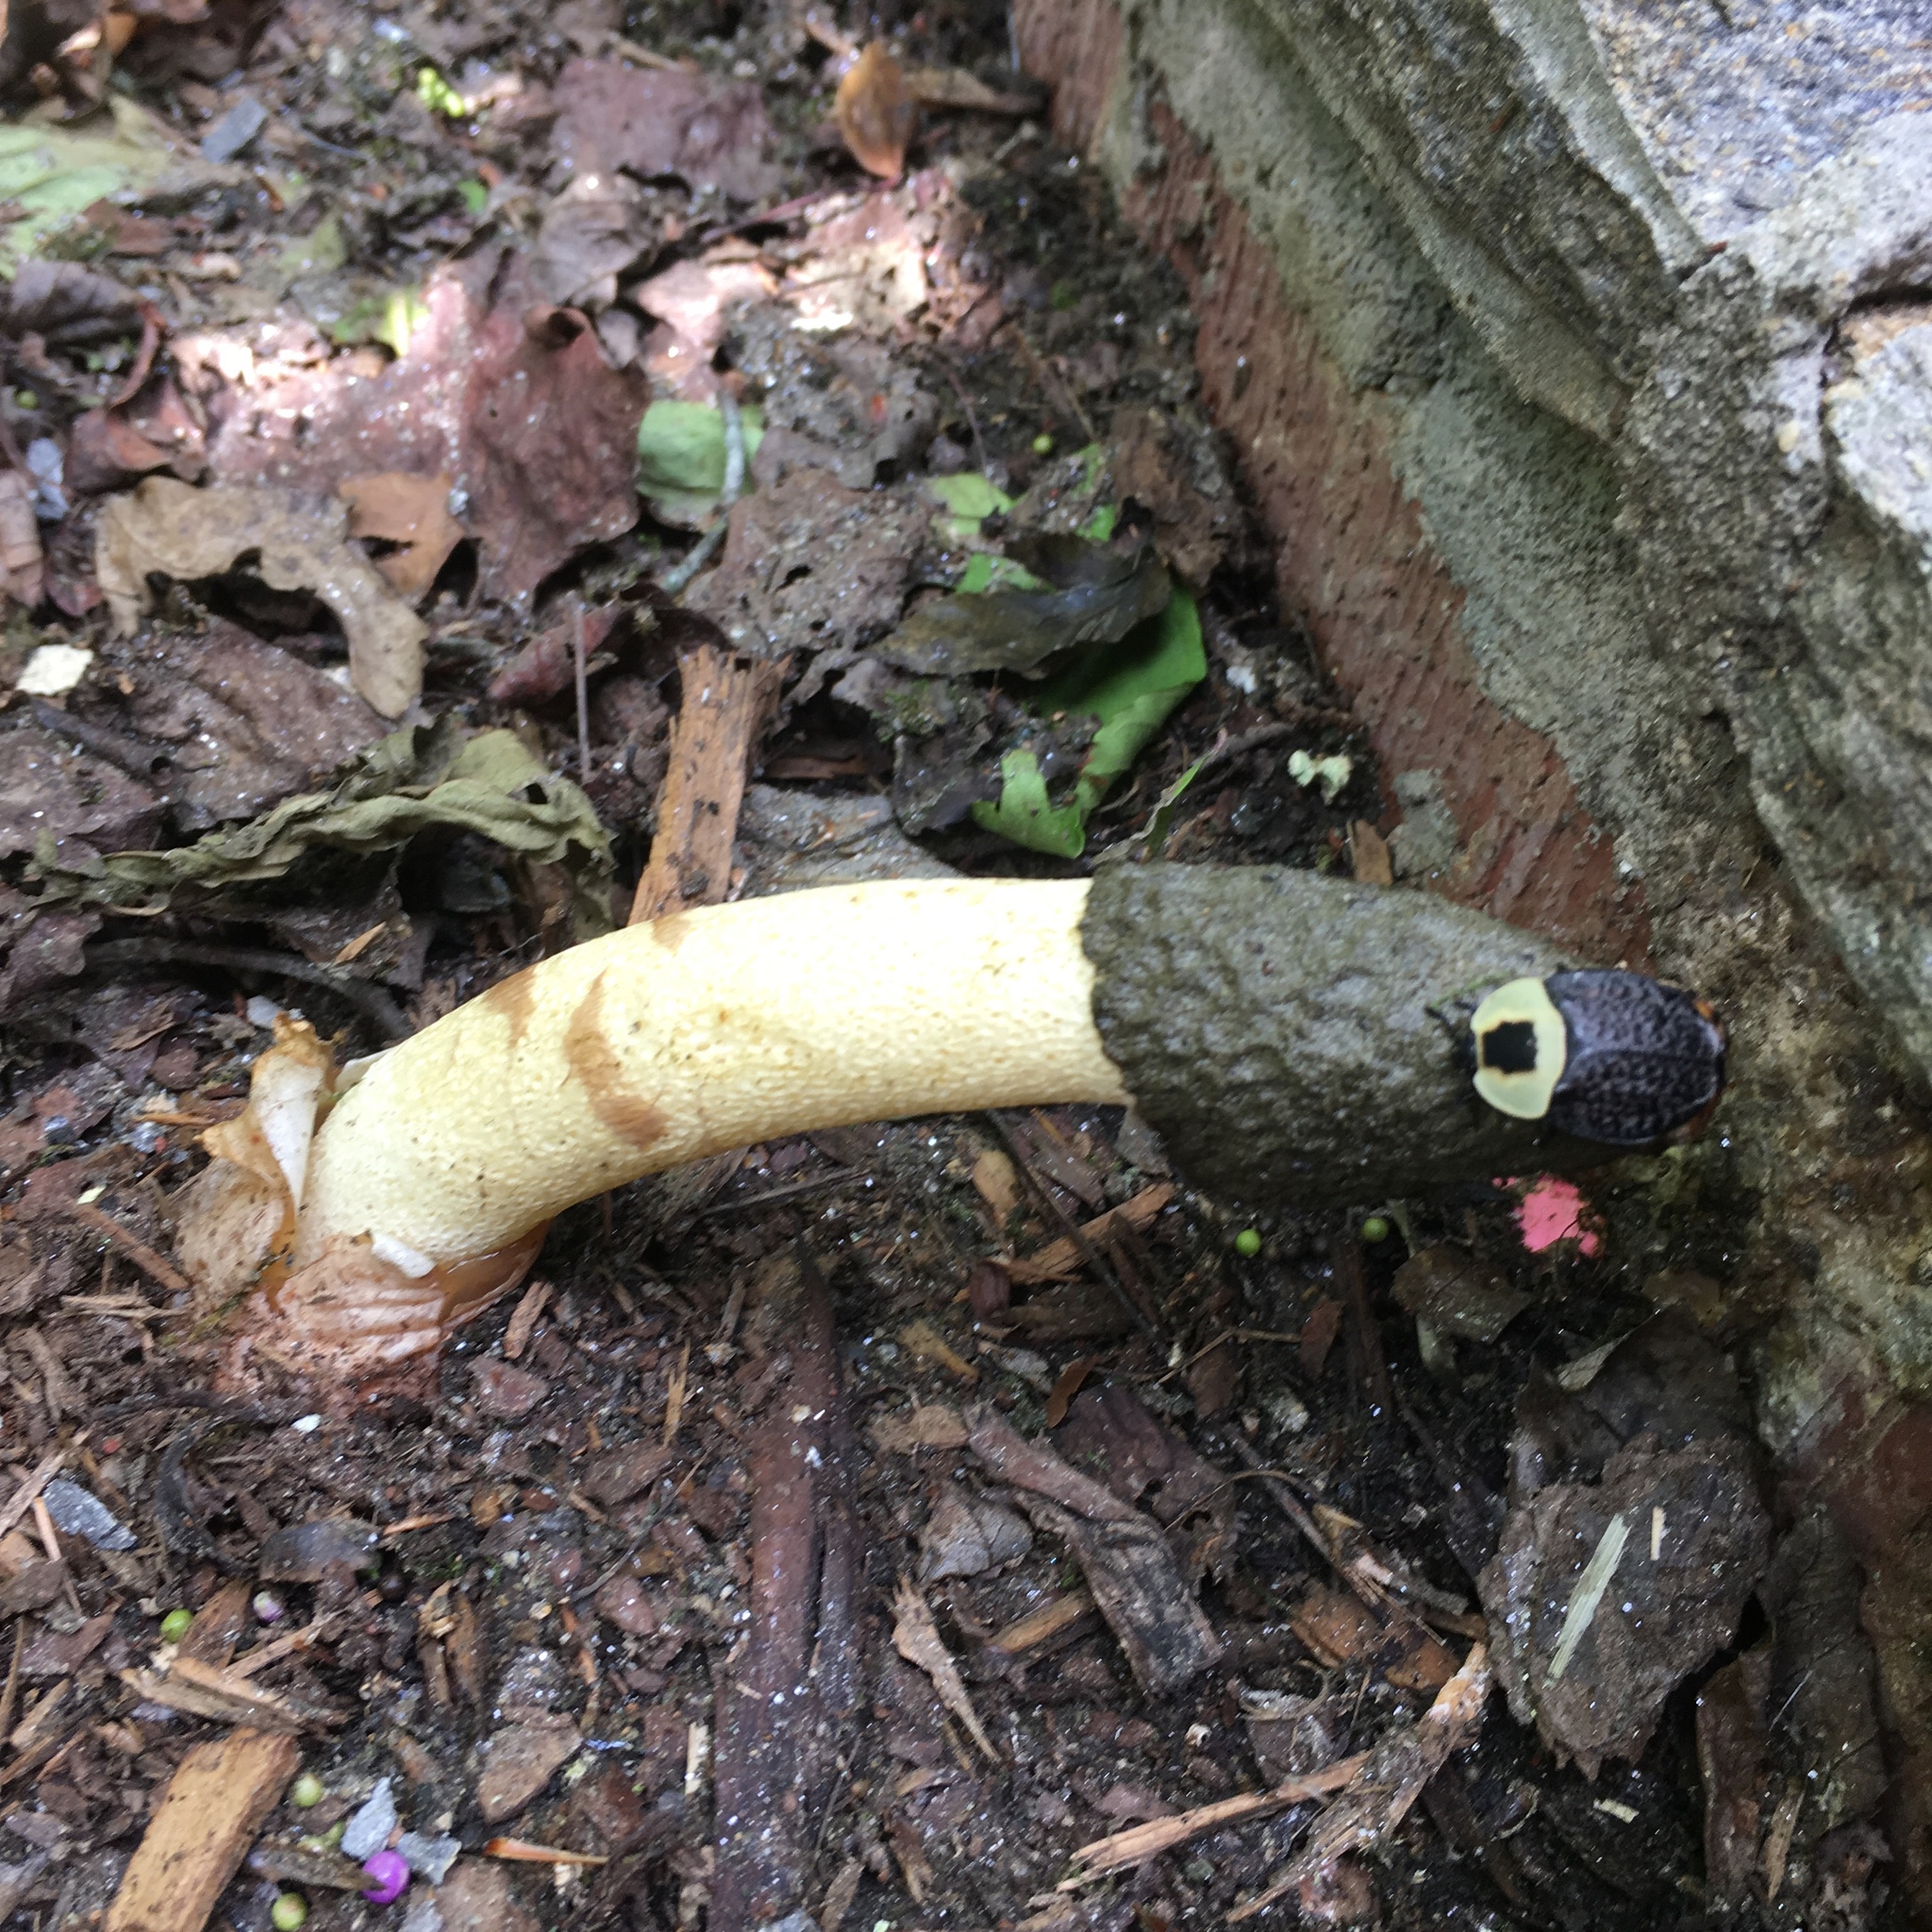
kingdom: Fungi
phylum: Basidiomycota
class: Agaricomycetes
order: Phallales
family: Phallaceae
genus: Phallus
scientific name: Phallus ravenelii
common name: Ravenel's stinkhorn
